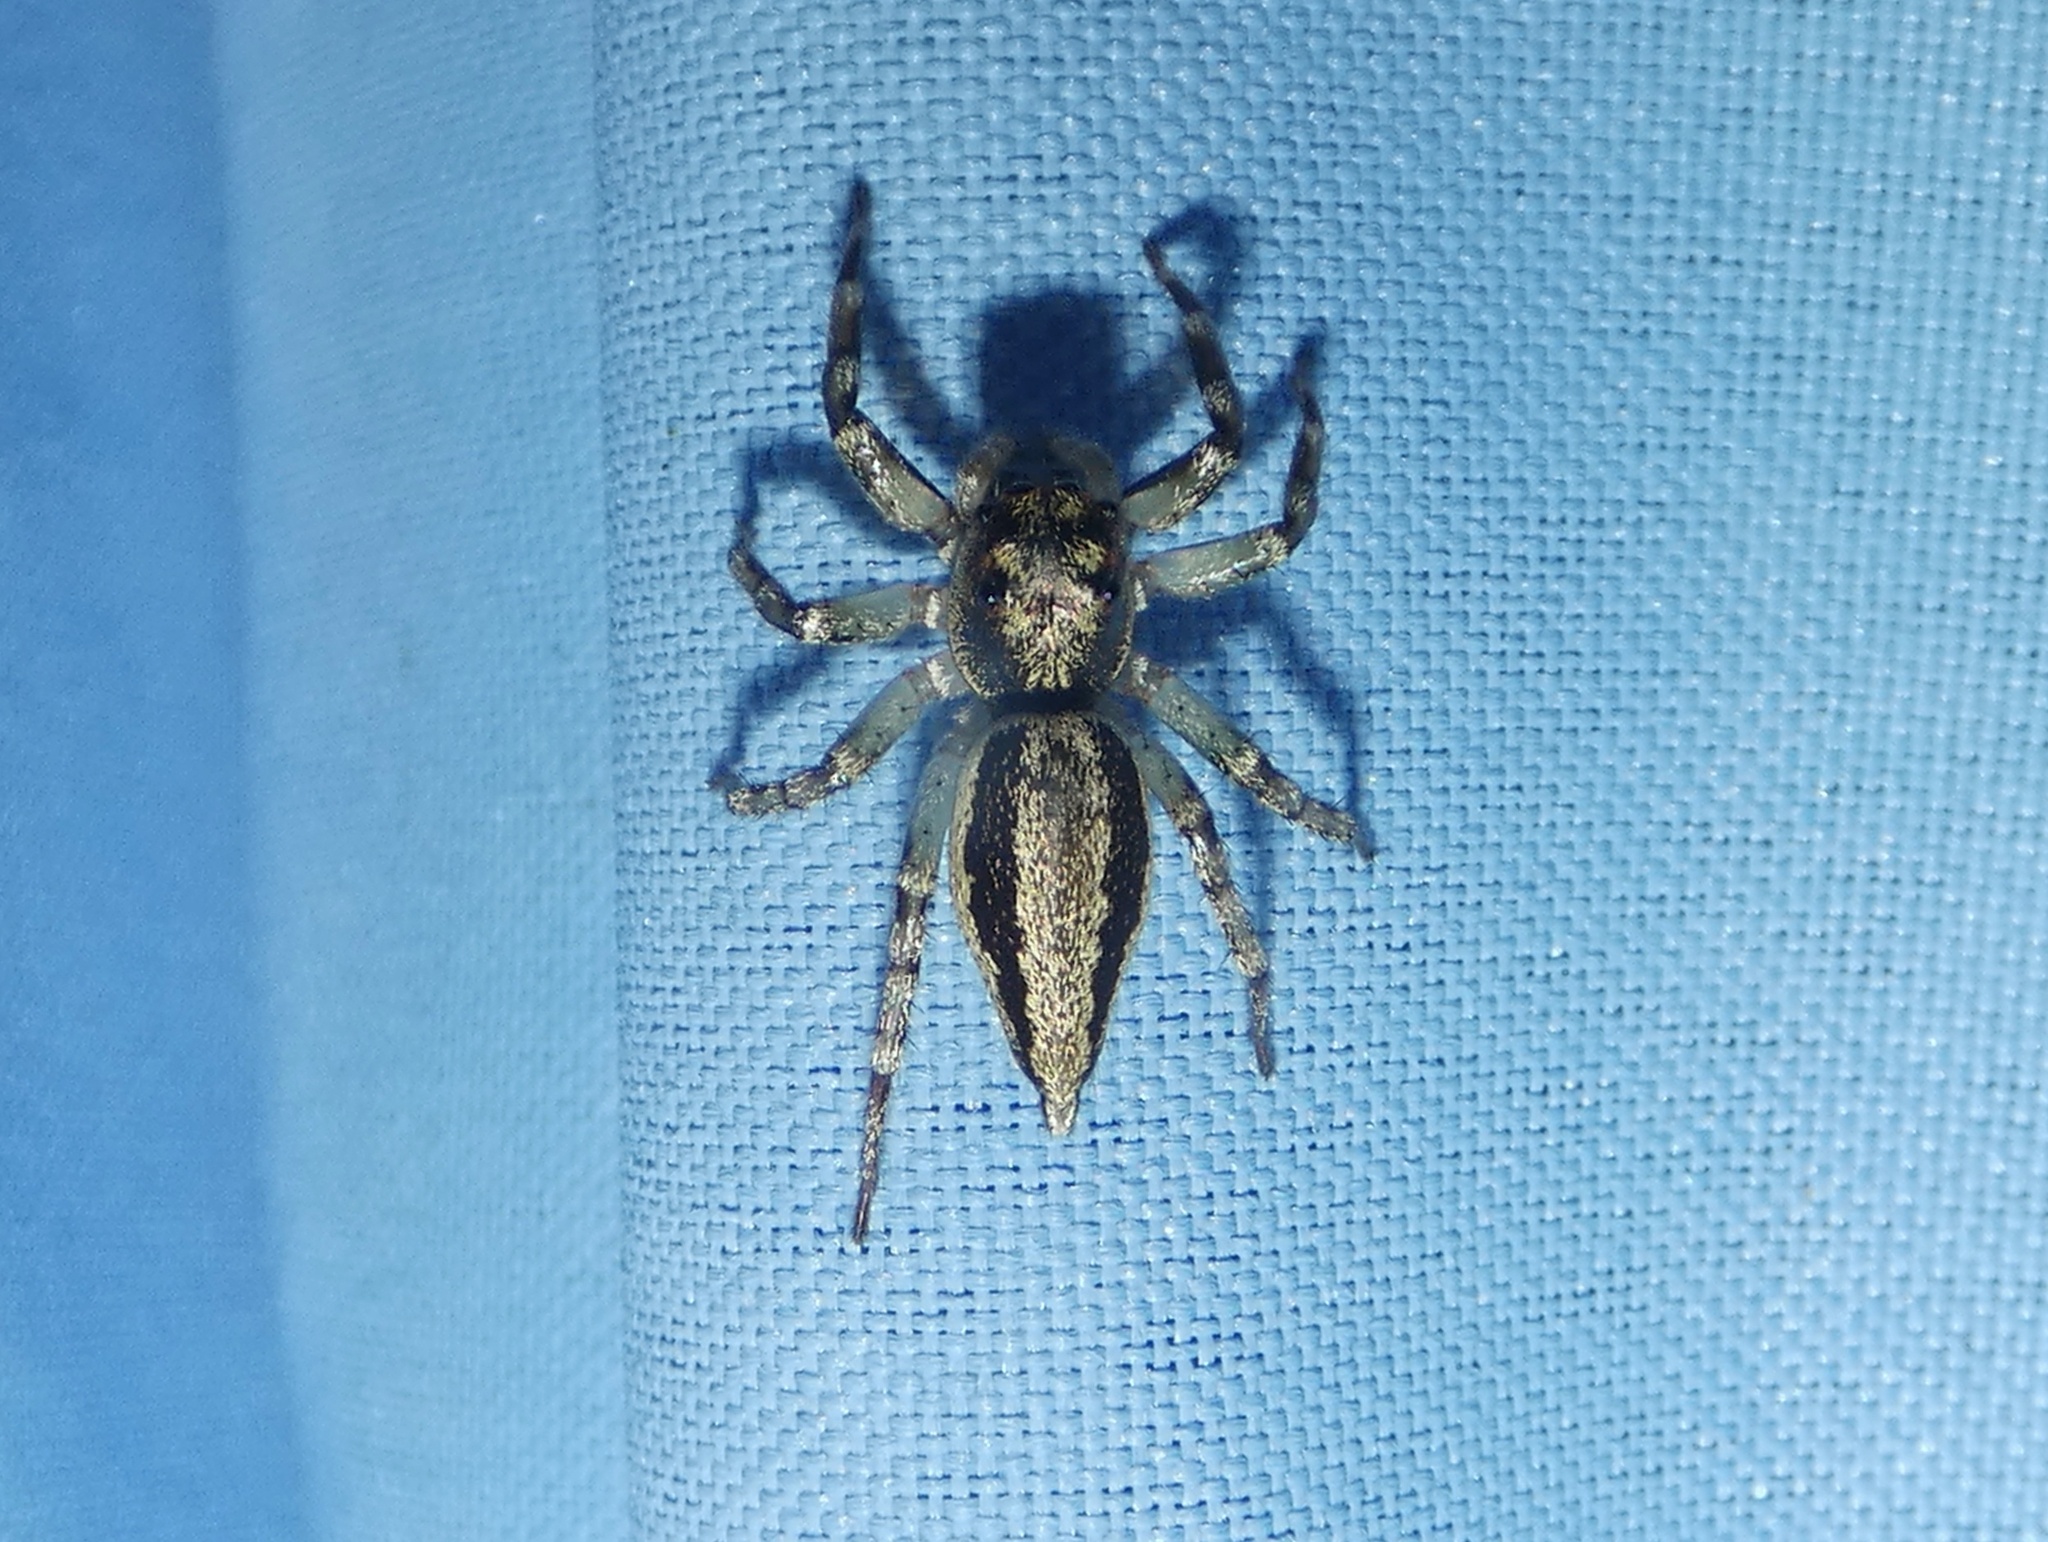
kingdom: Animalia
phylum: Arthropoda
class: Arachnida
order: Araneae
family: Salticidae
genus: Zenodorus
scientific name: Zenodorus swiftorum
